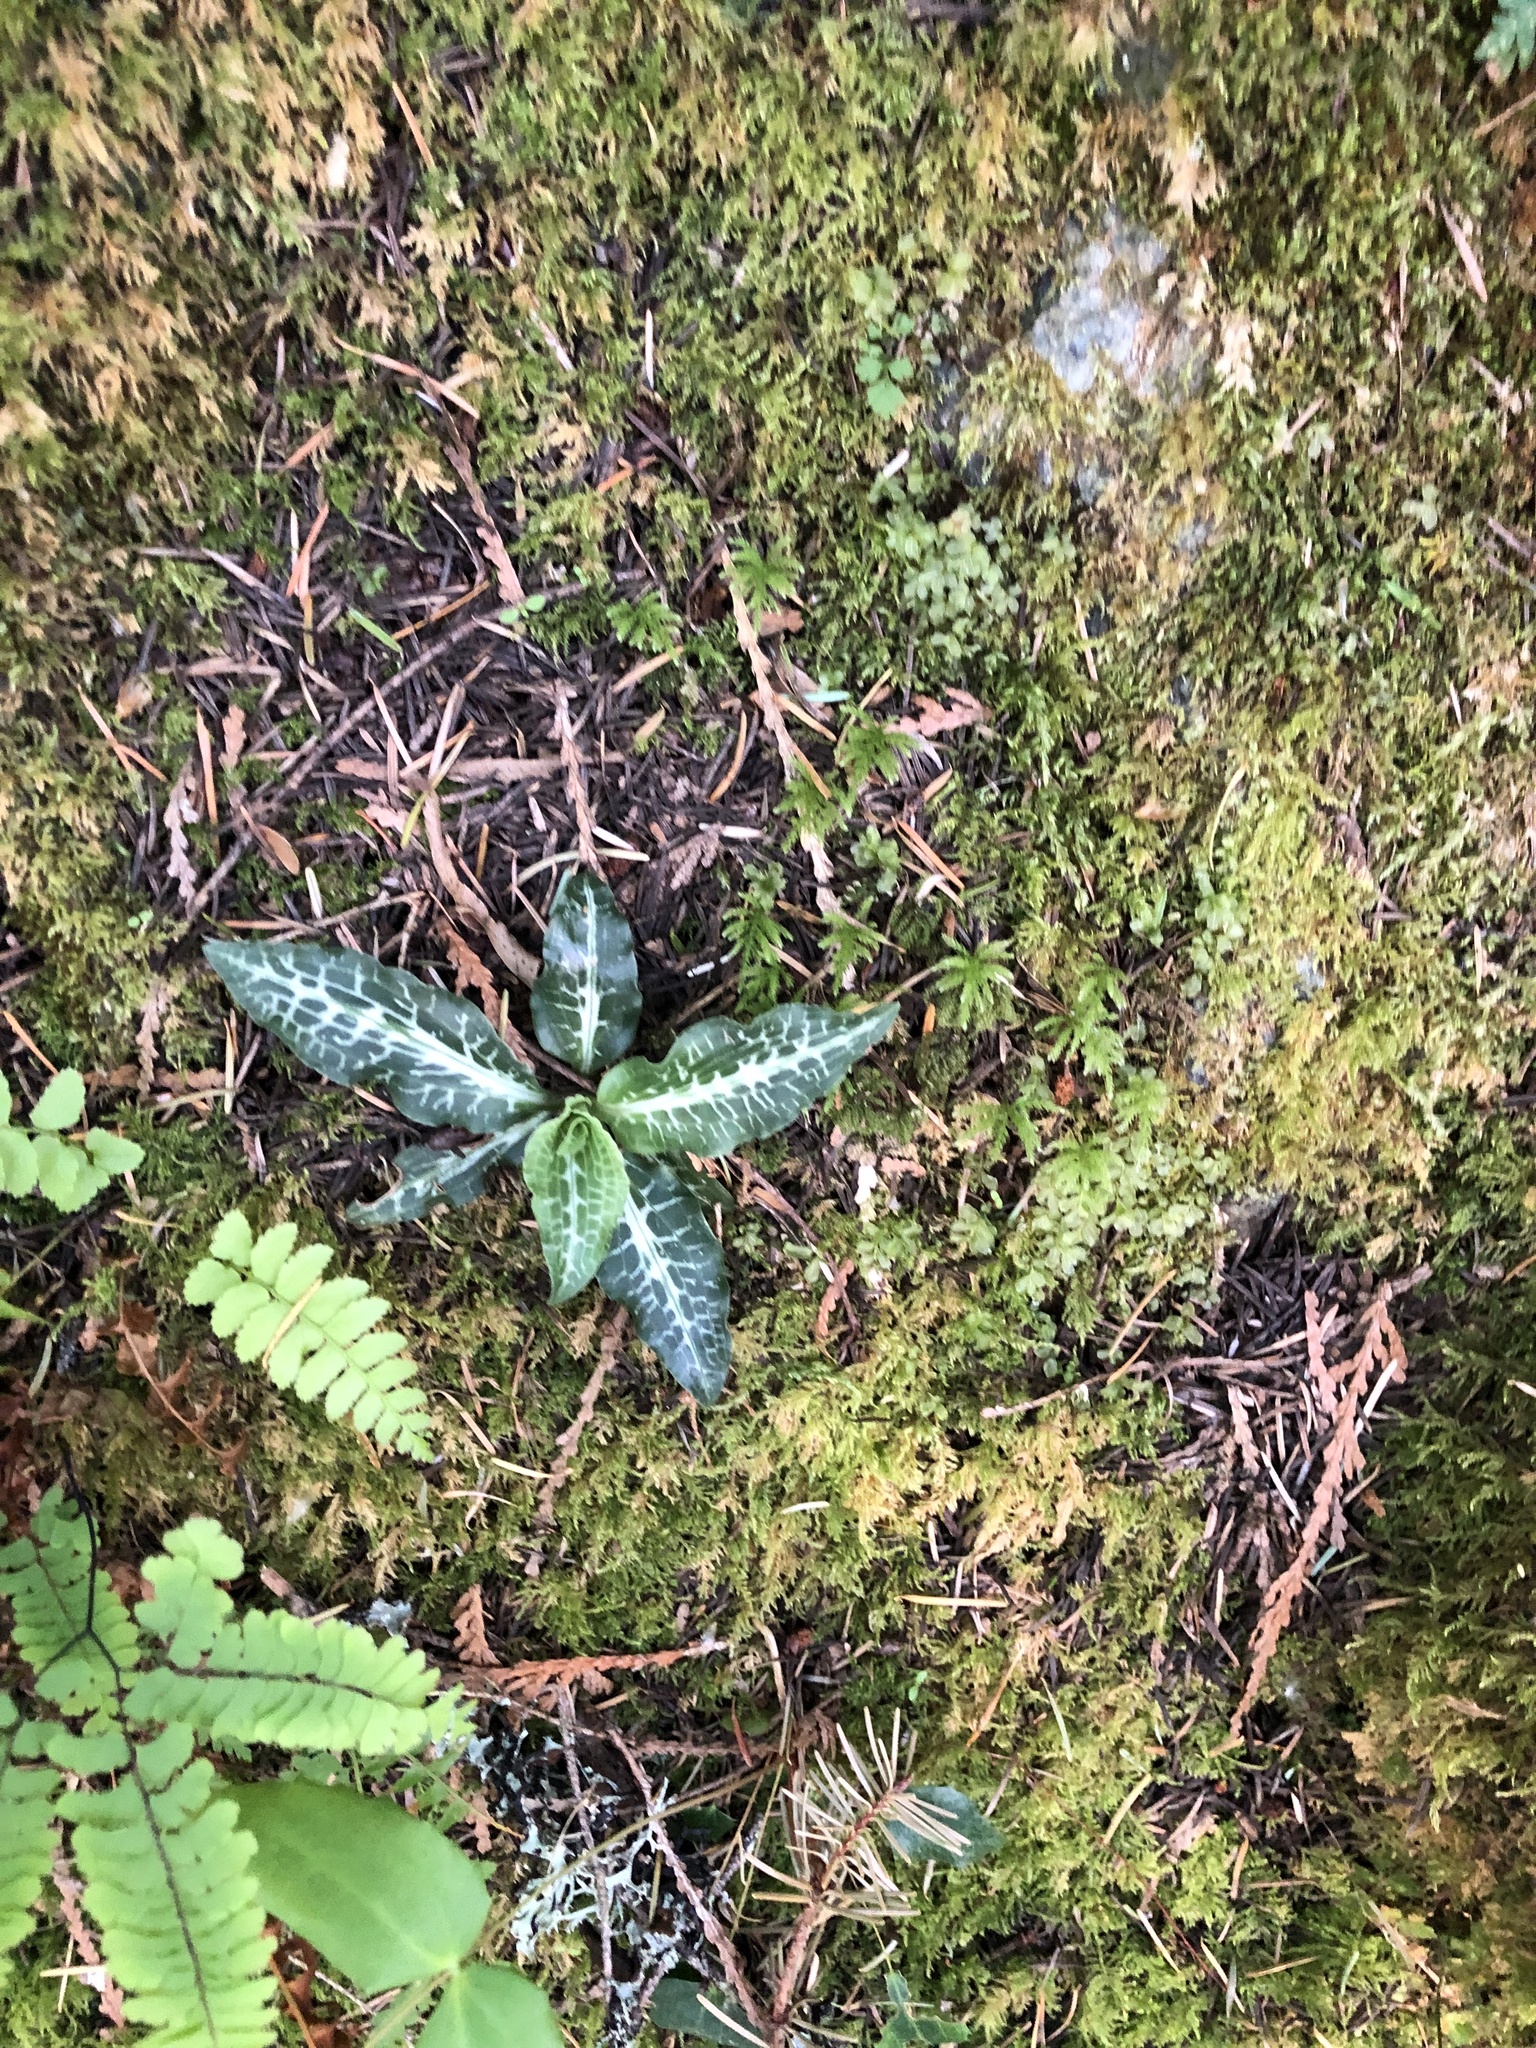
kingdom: Plantae
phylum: Tracheophyta
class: Liliopsida
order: Asparagales
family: Orchidaceae
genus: Goodyera
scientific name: Goodyera oblongifolia
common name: Giant rattlesnake-plantain
